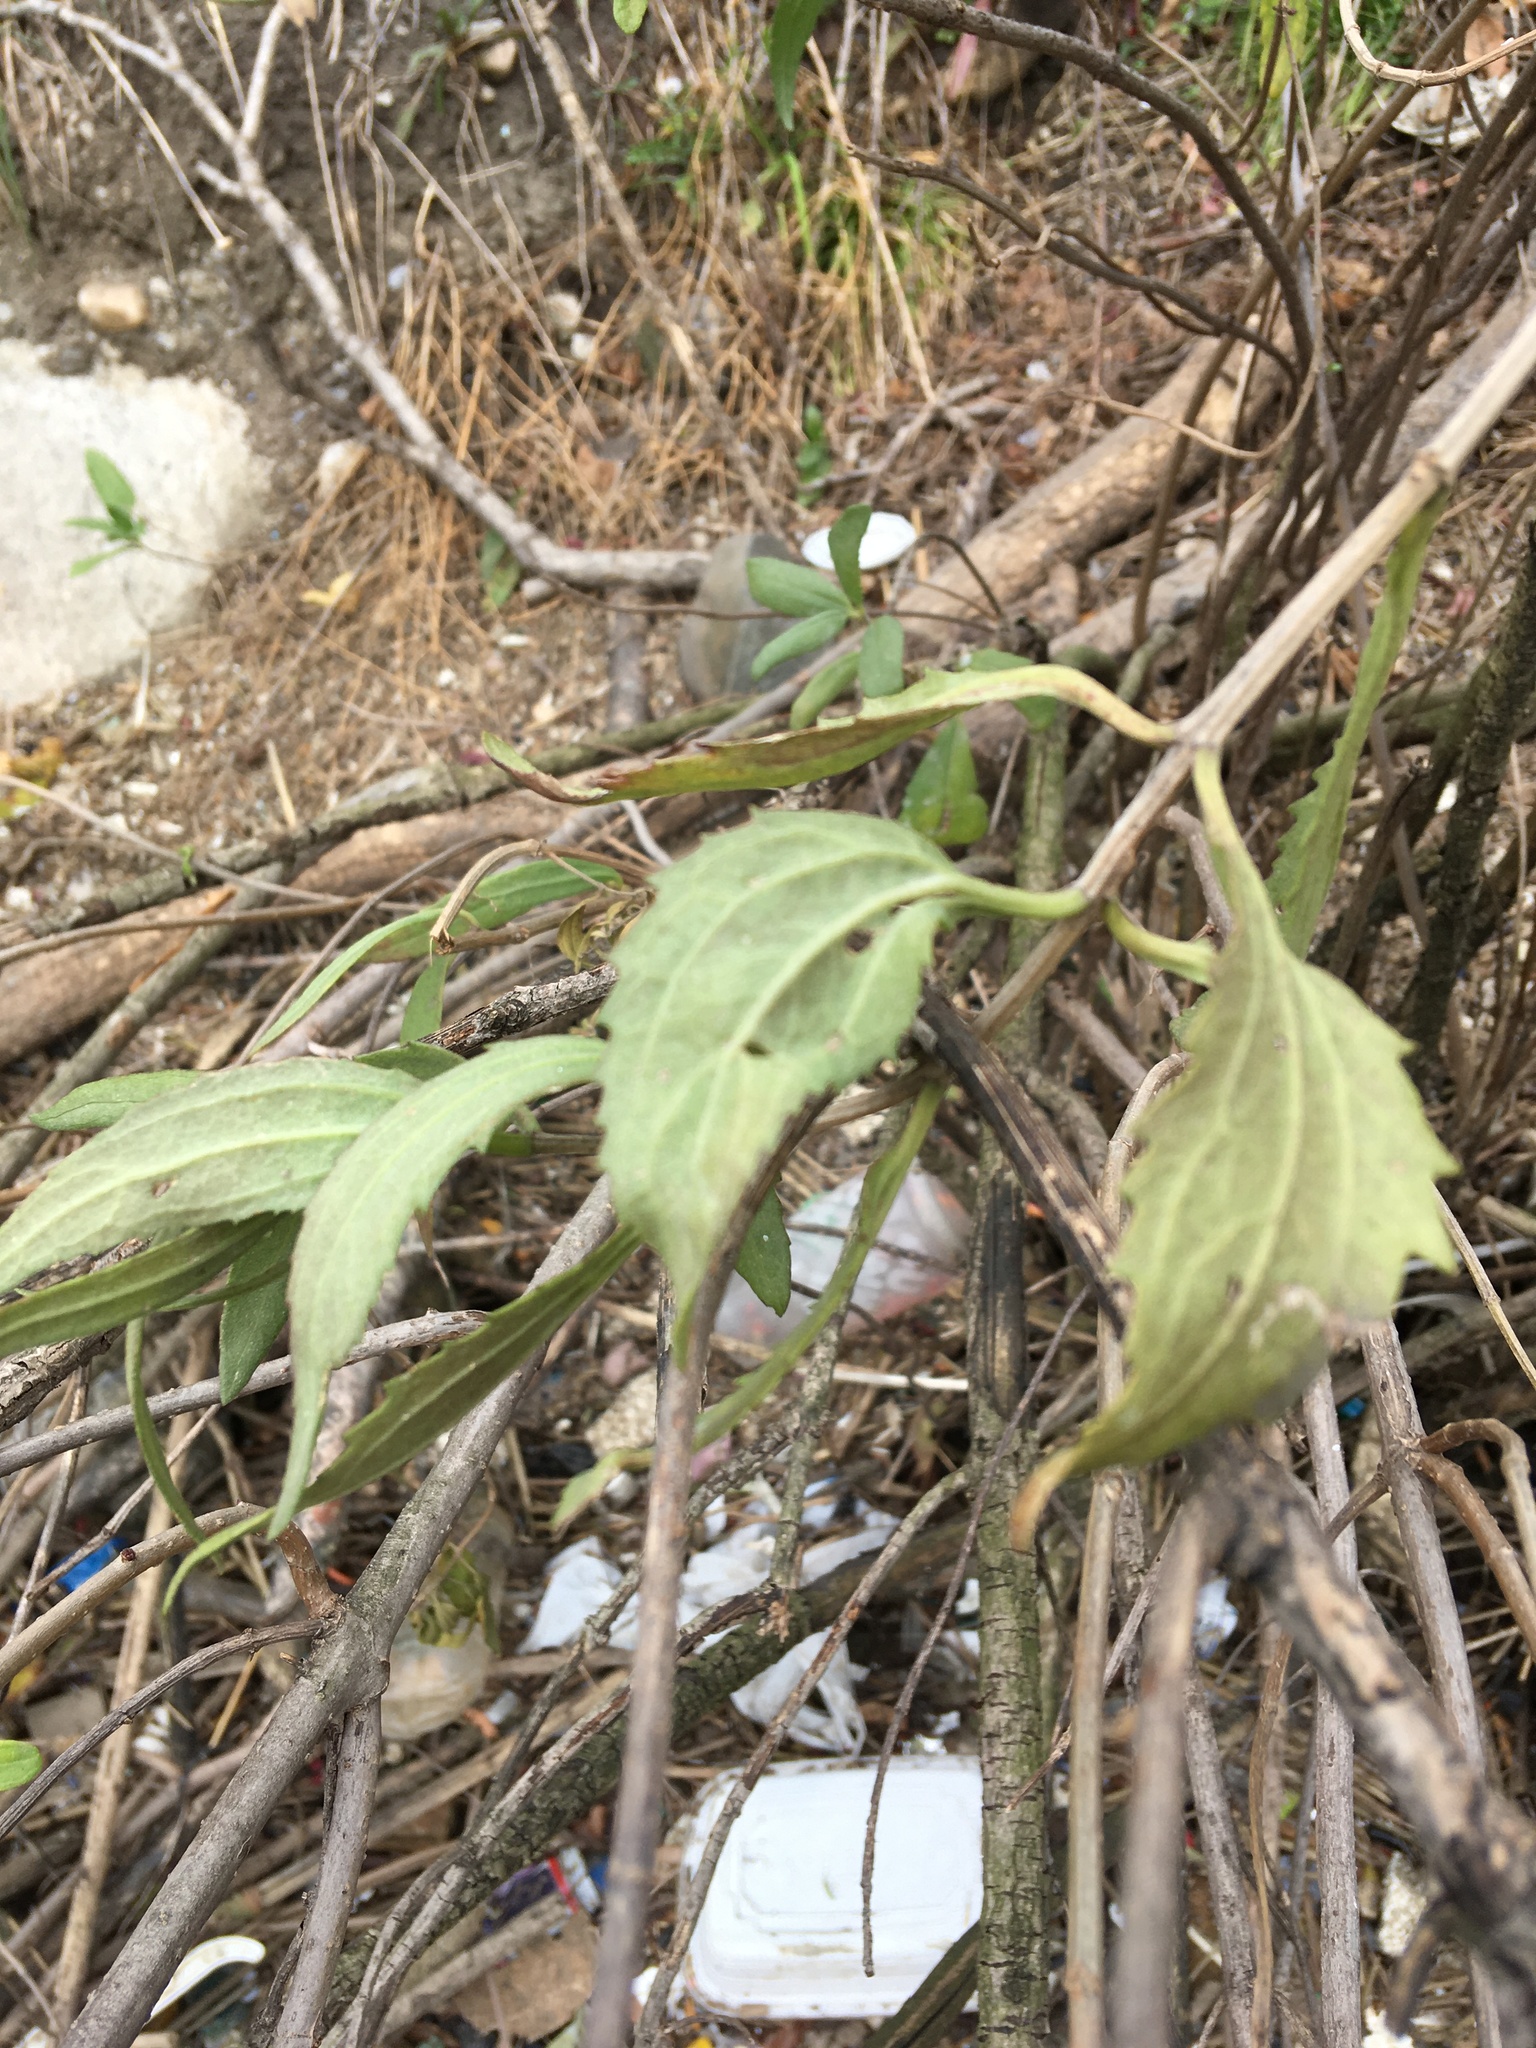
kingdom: Plantae
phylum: Tracheophyta
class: Magnoliopsida
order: Asterales
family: Asteraceae
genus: Iva
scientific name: Iva frutescens
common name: Big-leaved marsh-elder
